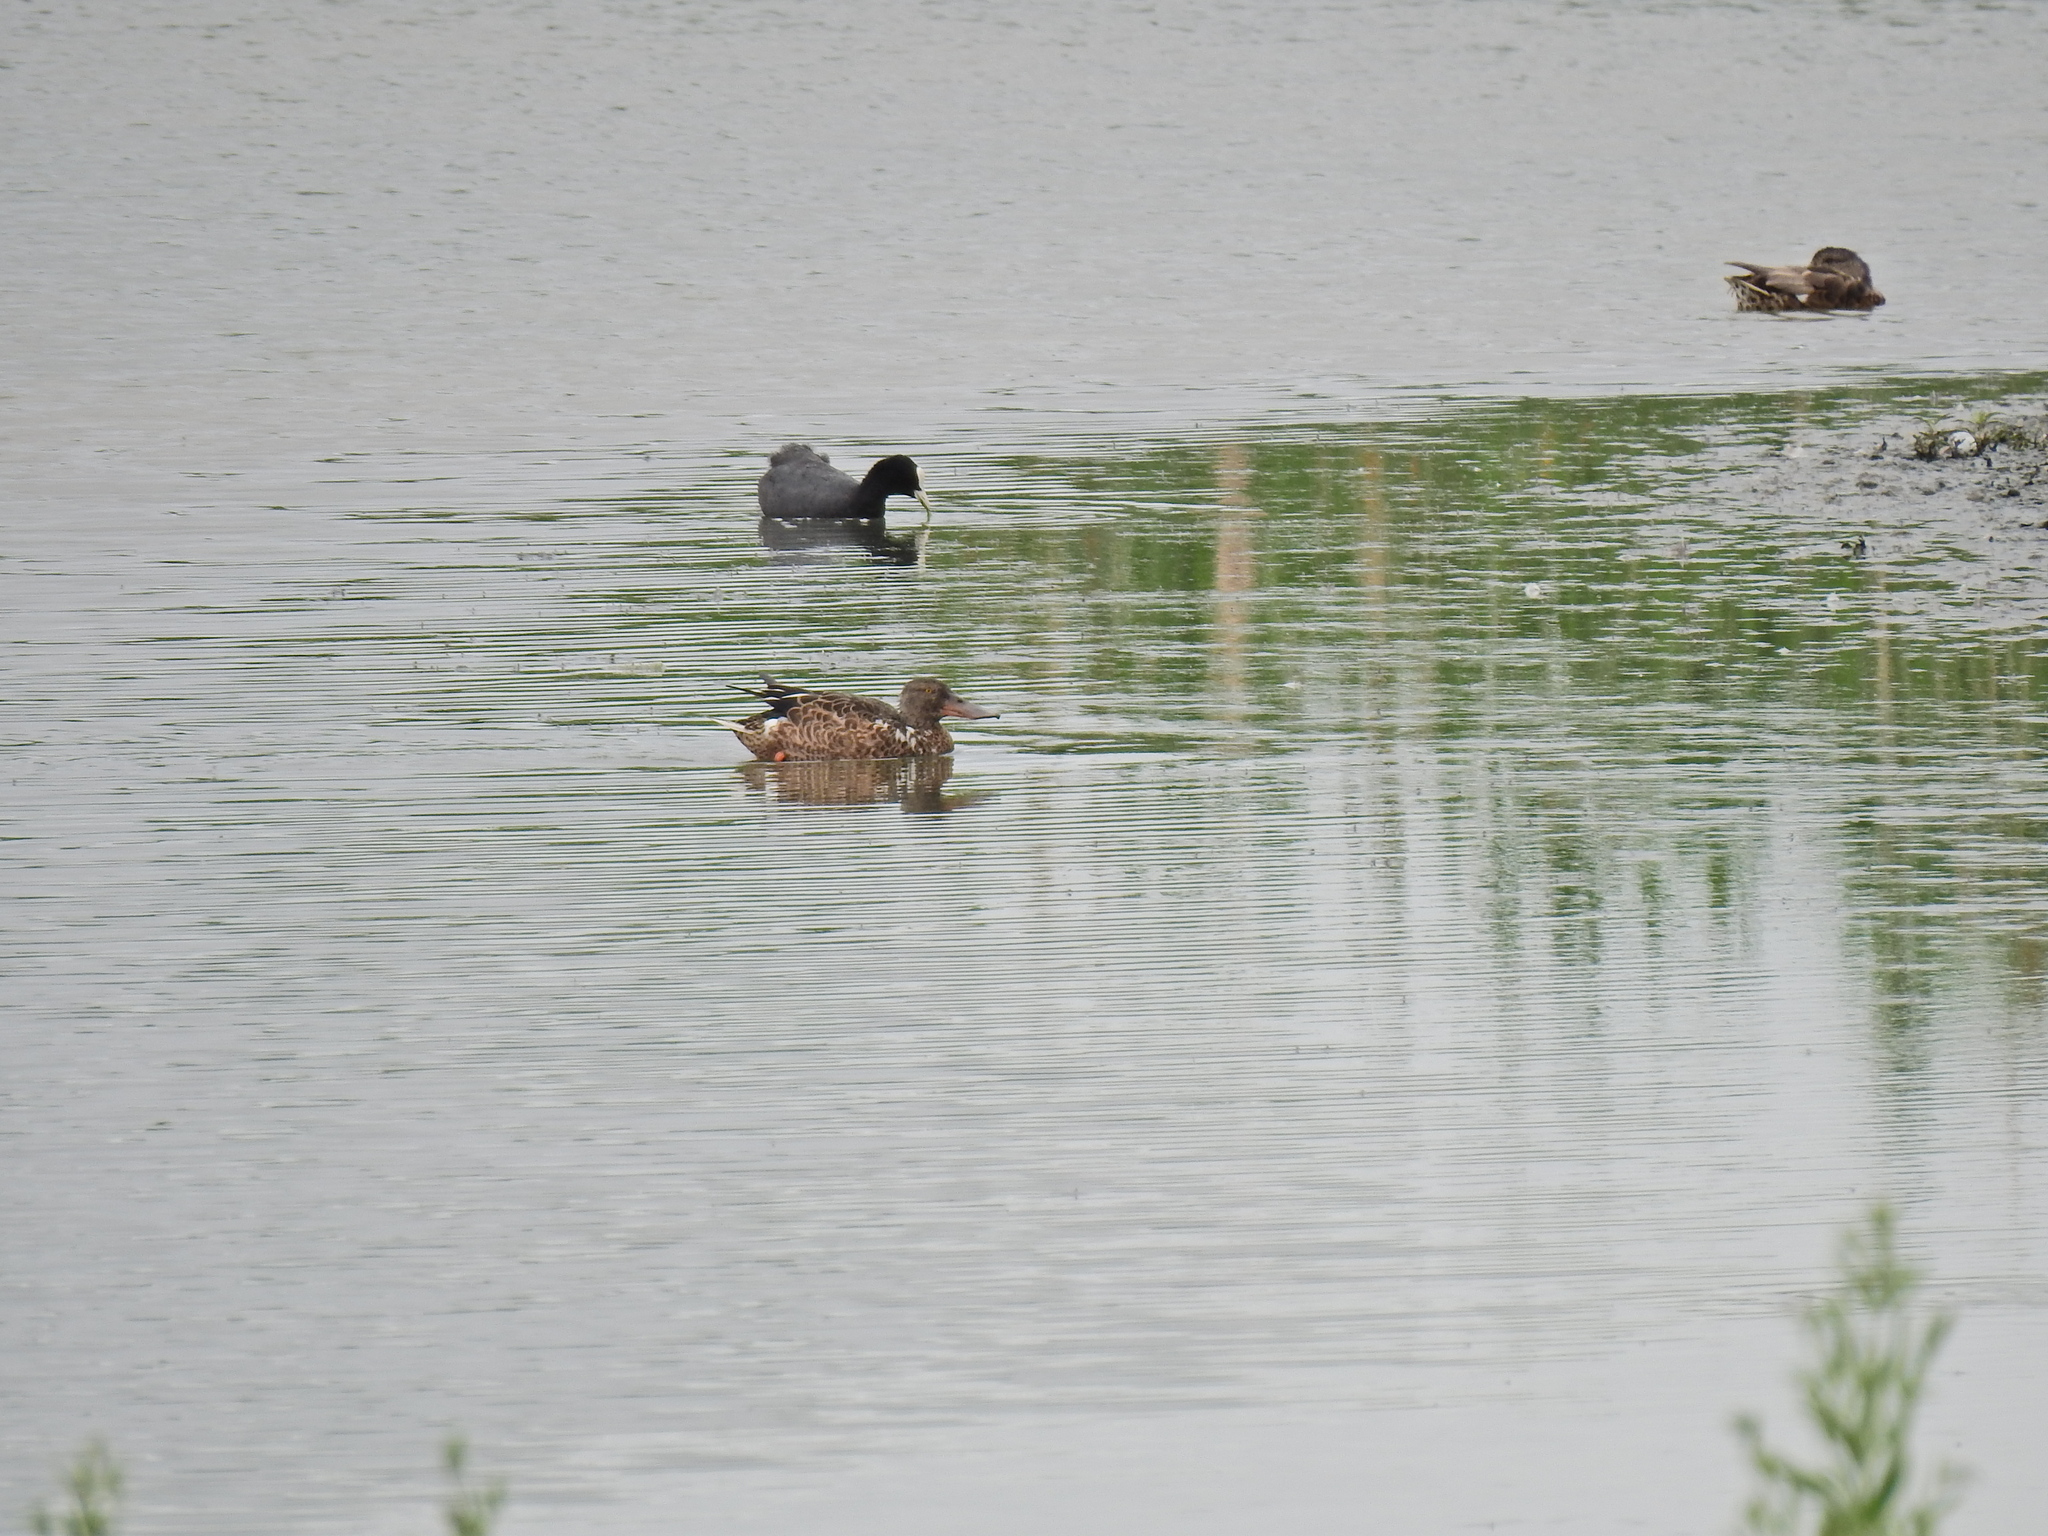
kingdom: Animalia
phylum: Chordata
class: Aves
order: Gruiformes
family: Rallidae
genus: Fulica
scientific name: Fulica atra
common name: Eurasian coot
